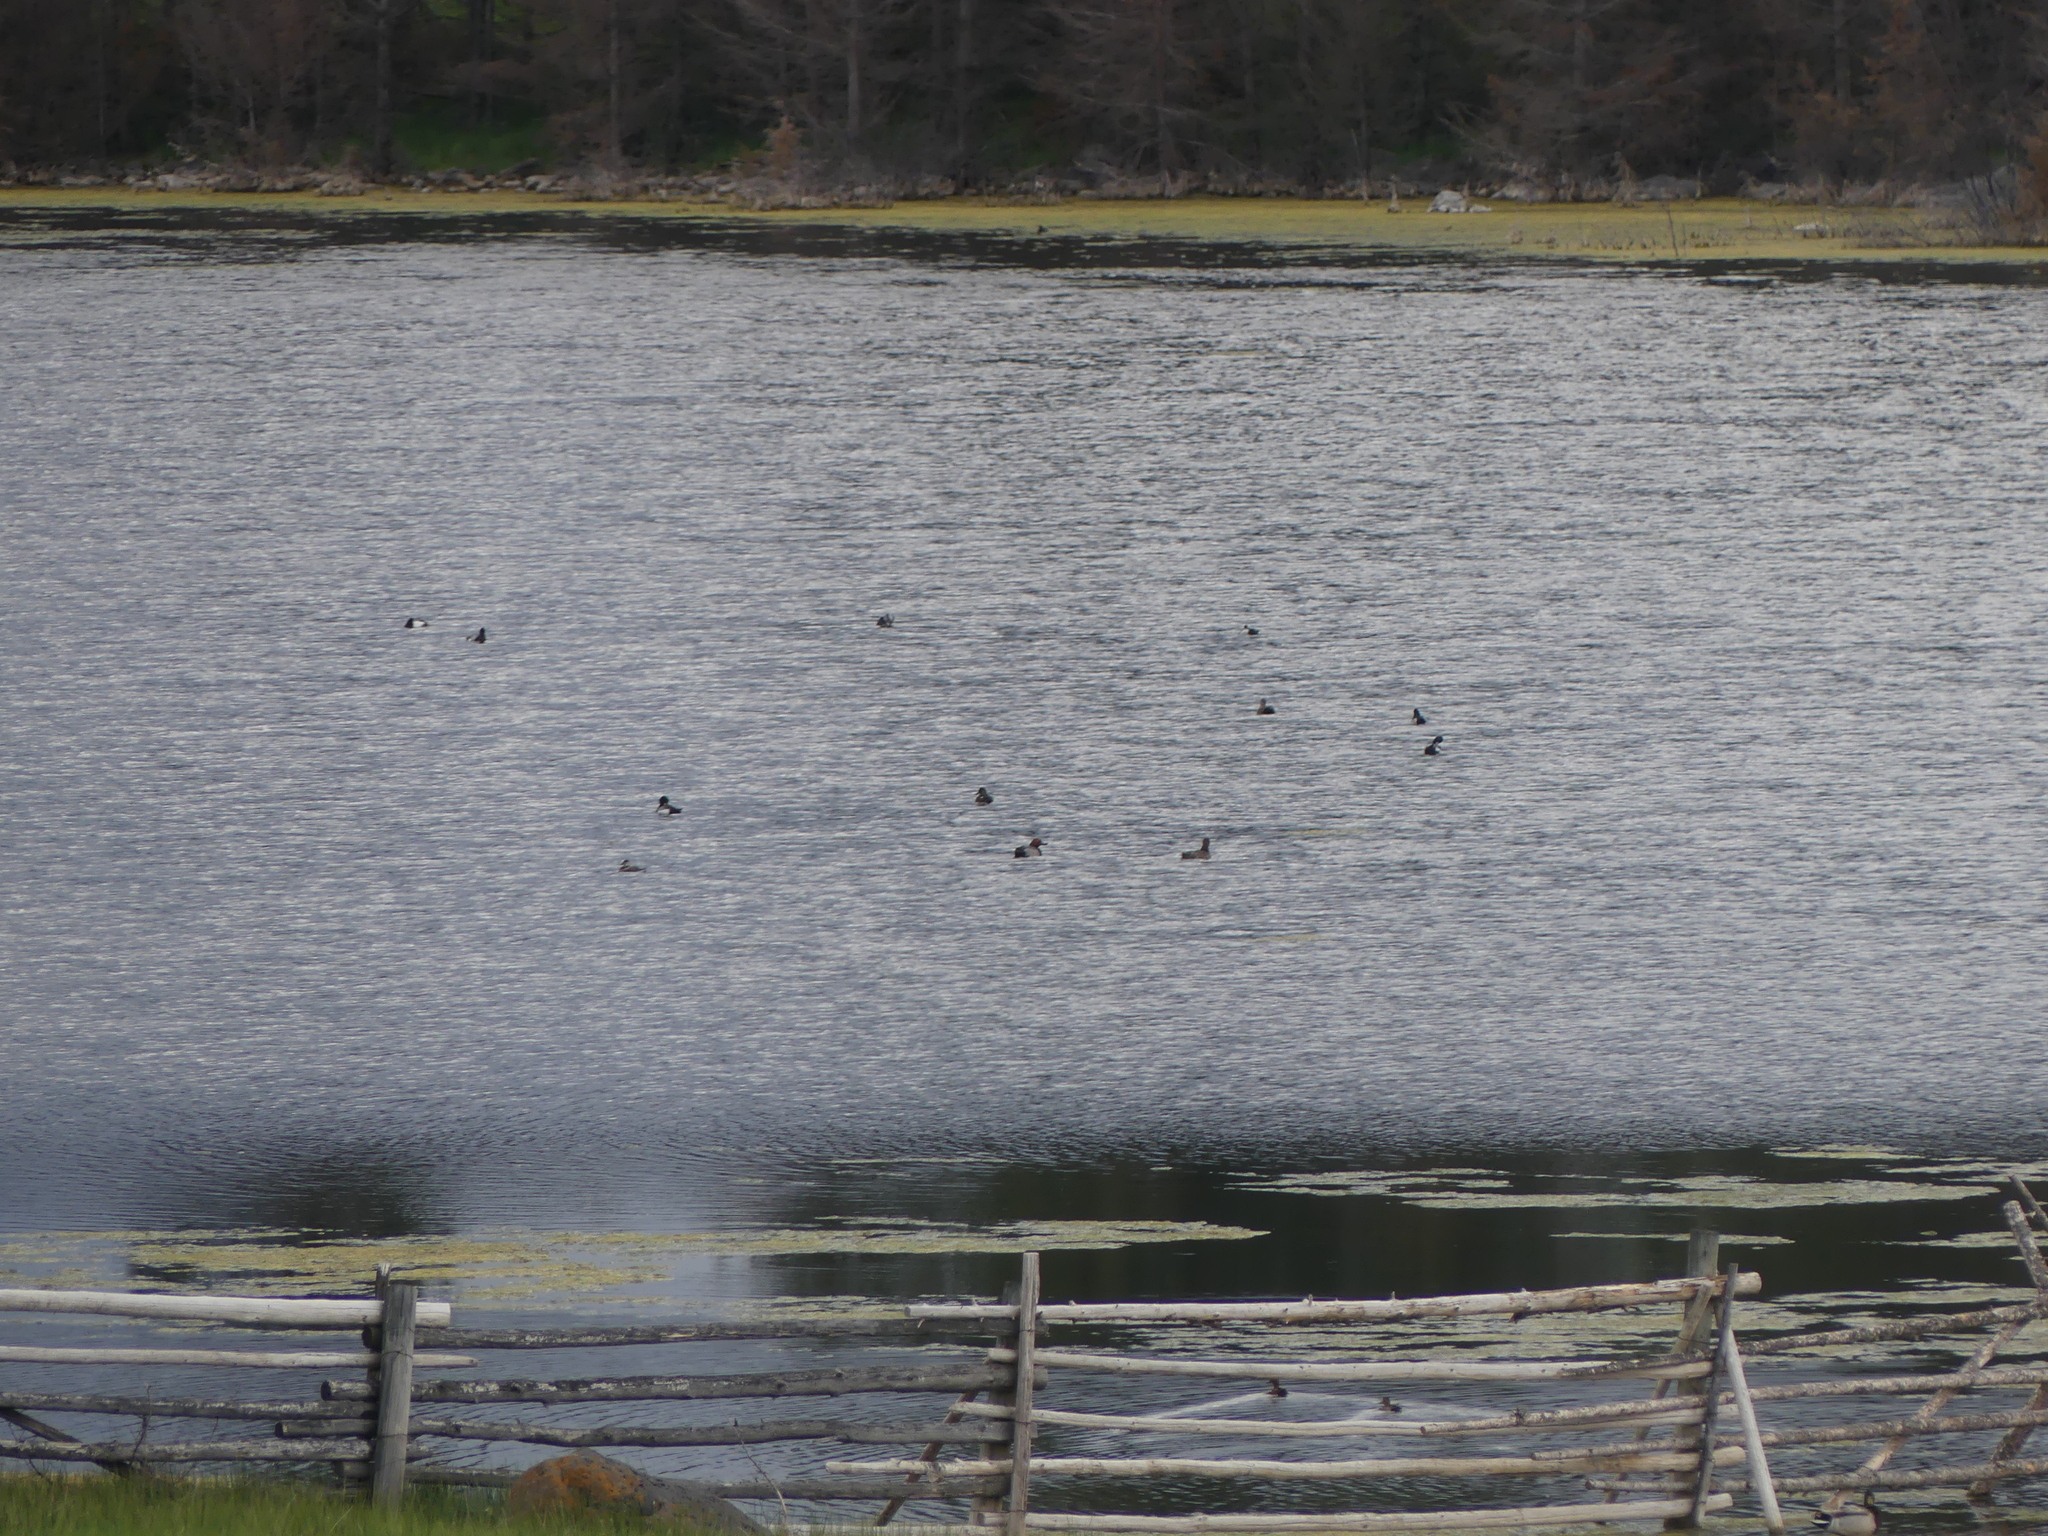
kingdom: Animalia
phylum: Chordata
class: Aves
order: Anseriformes
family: Anatidae
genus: Aythya
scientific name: Aythya americana
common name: Redhead
